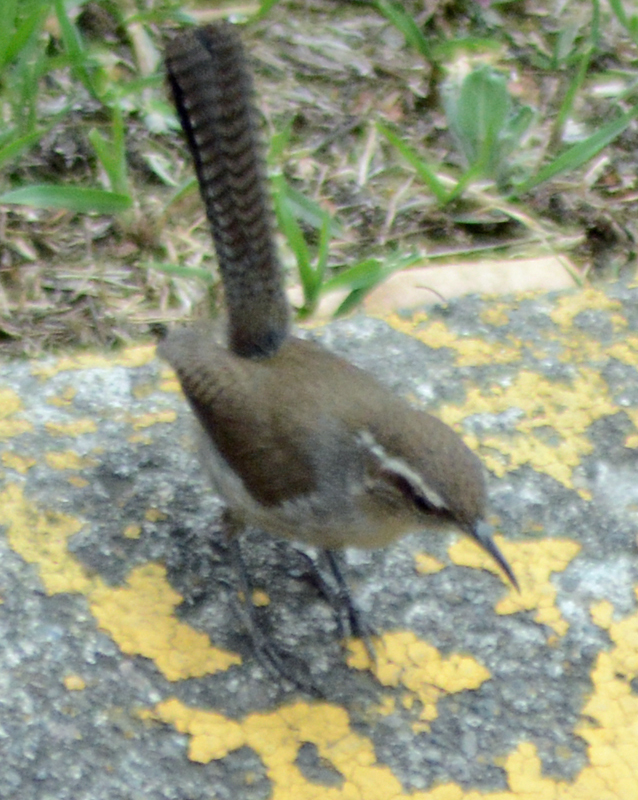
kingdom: Animalia
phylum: Chordata
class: Aves
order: Passeriformes
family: Troglodytidae
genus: Thryomanes
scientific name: Thryomanes bewickii
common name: Bewick's wren
